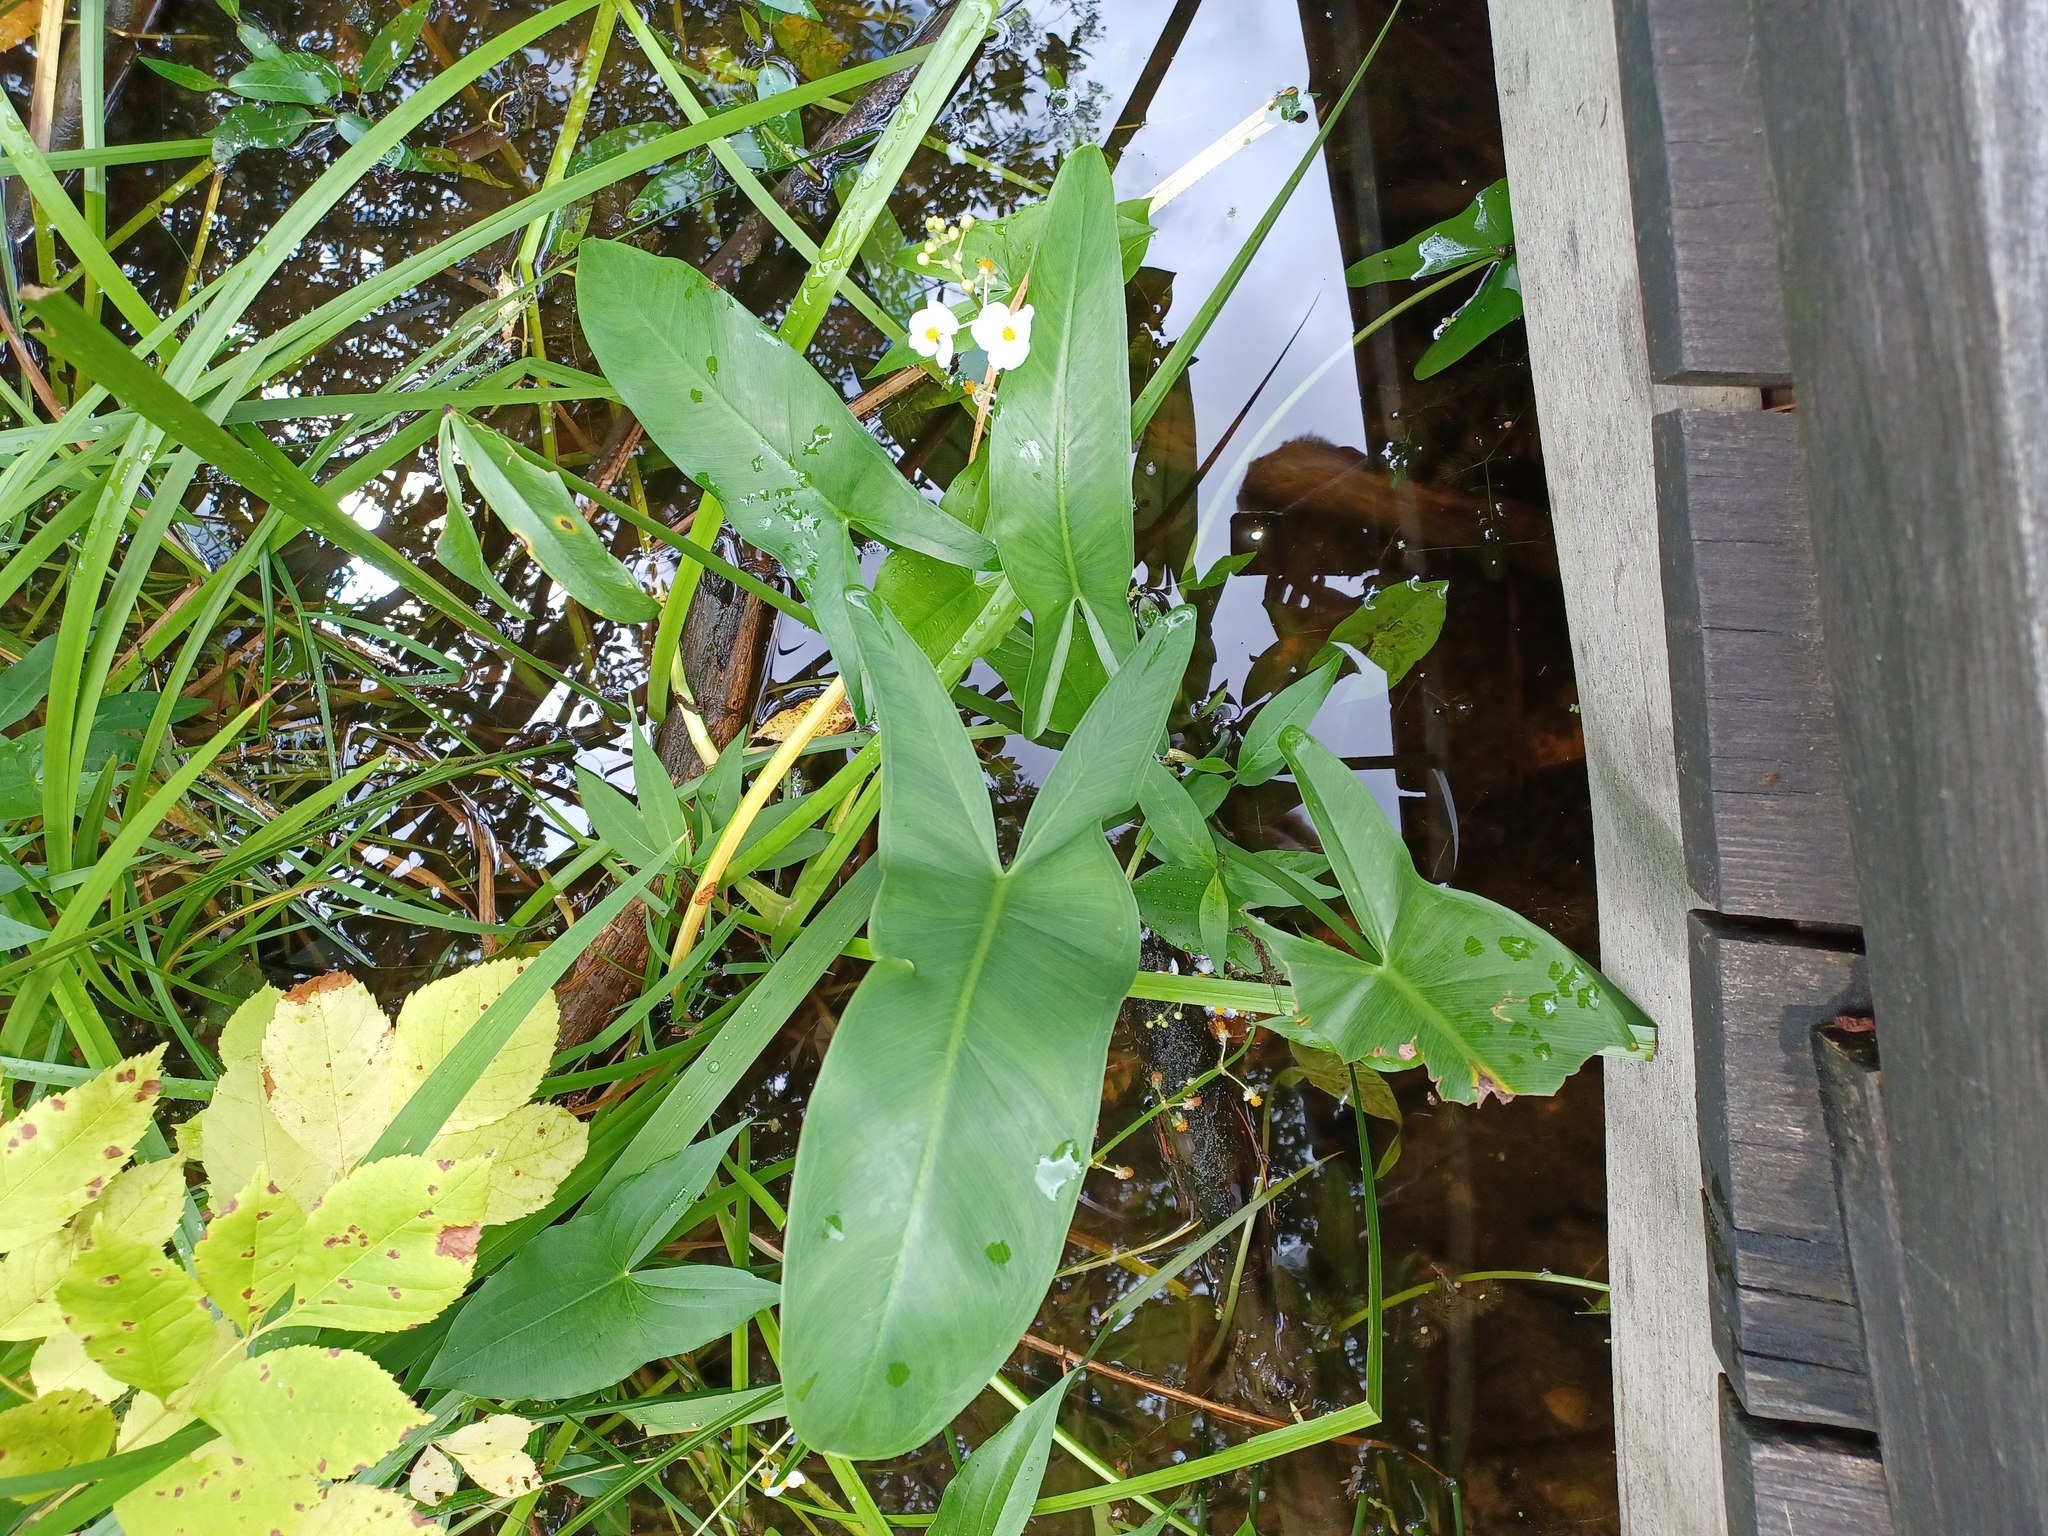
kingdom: Plantae
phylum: Tracheophyta
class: Liliopsida
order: Alismatales
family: Araceae
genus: Peltandra
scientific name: Peltandra virginica
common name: Arrow arum
